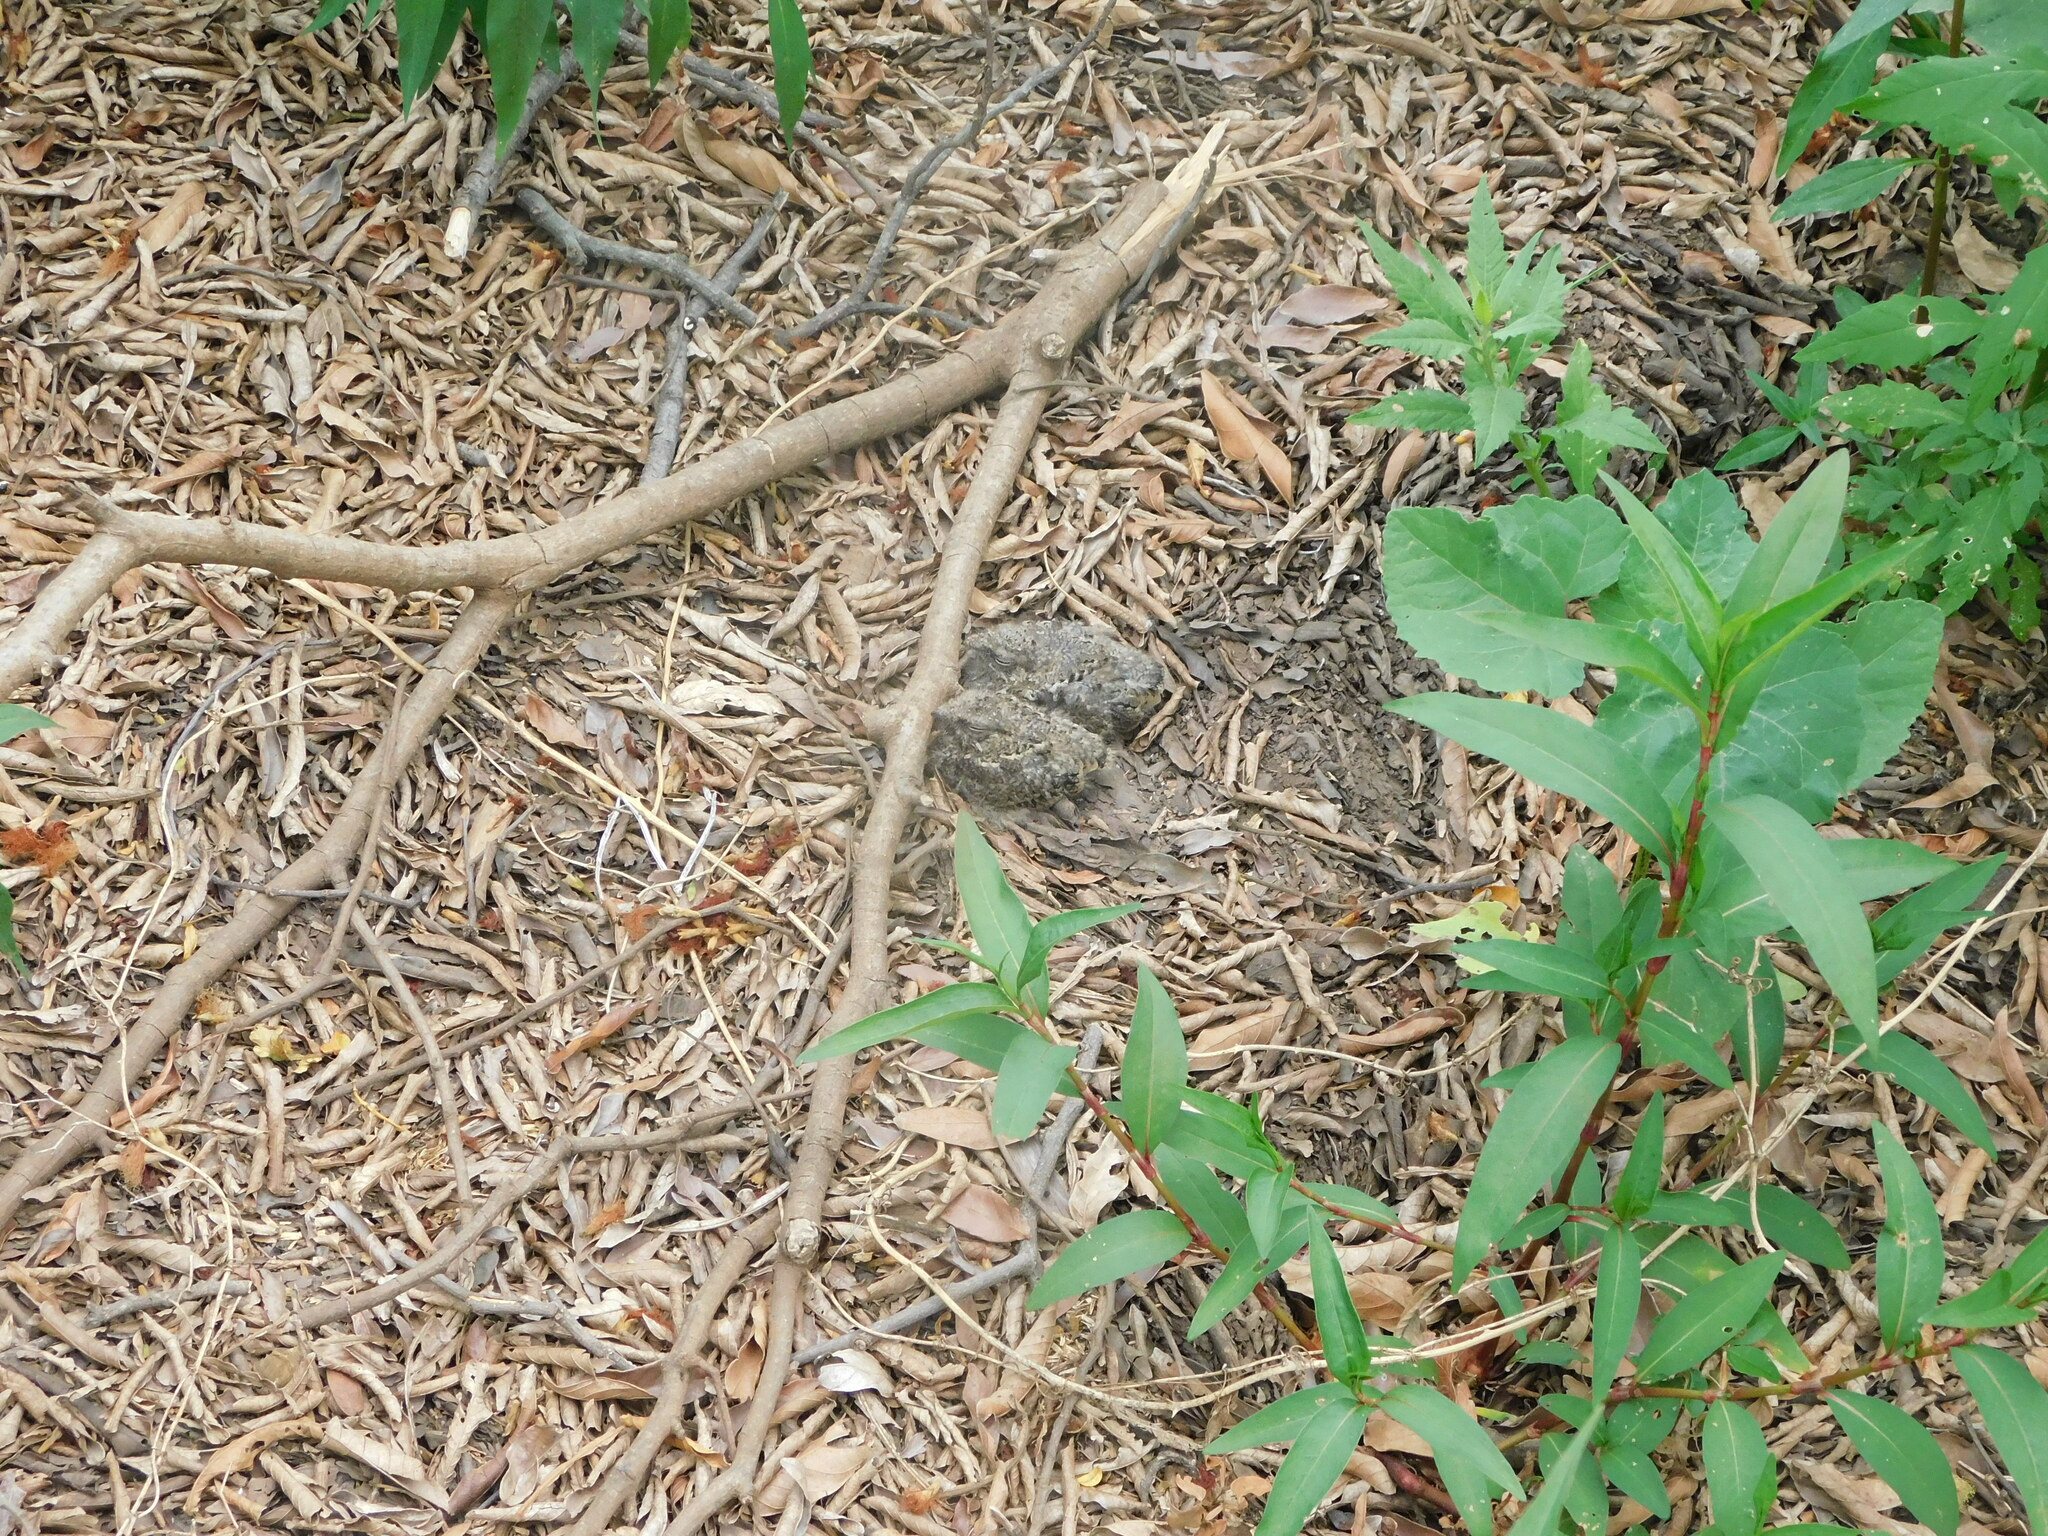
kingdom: Animalia
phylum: Chordata
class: Aves
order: Caprimulgiformes
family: Caprimulgidae
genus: Hydropsalis
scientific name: Hydropsalis torquata
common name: Scissor-tailed nightjar
